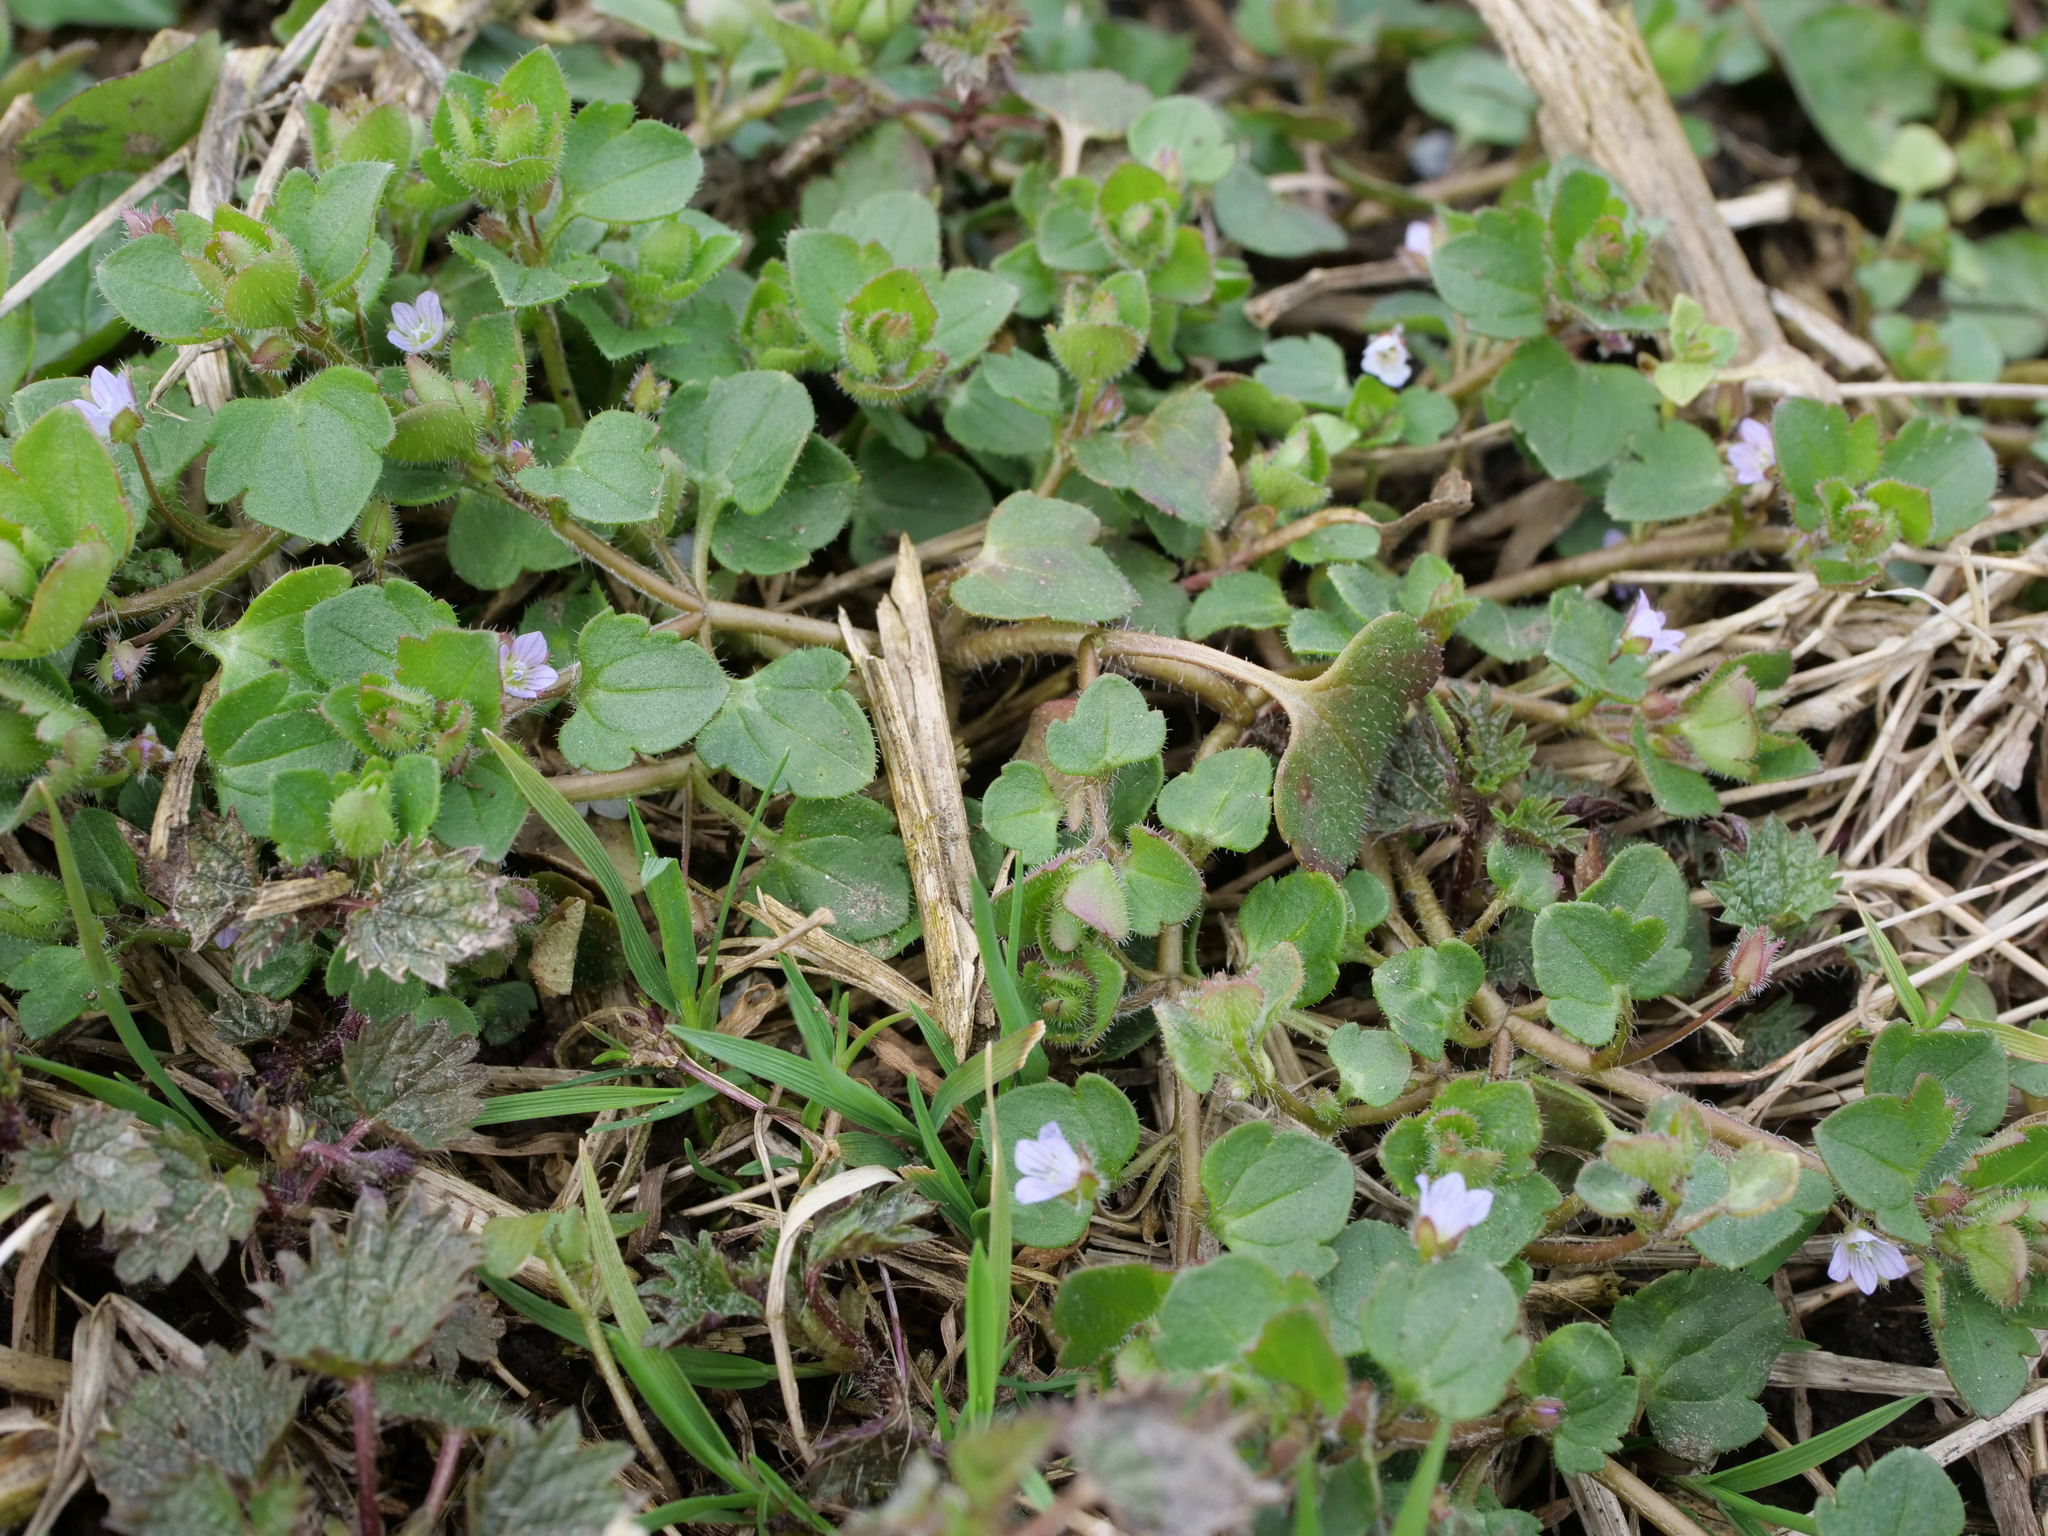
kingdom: Plantae
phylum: Tracheophyta
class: Magnoliopsida
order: Lamiales
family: Plantaginaceae
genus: Veronica
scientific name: Veronica sublobata
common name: False ivy-leaved speedwell
